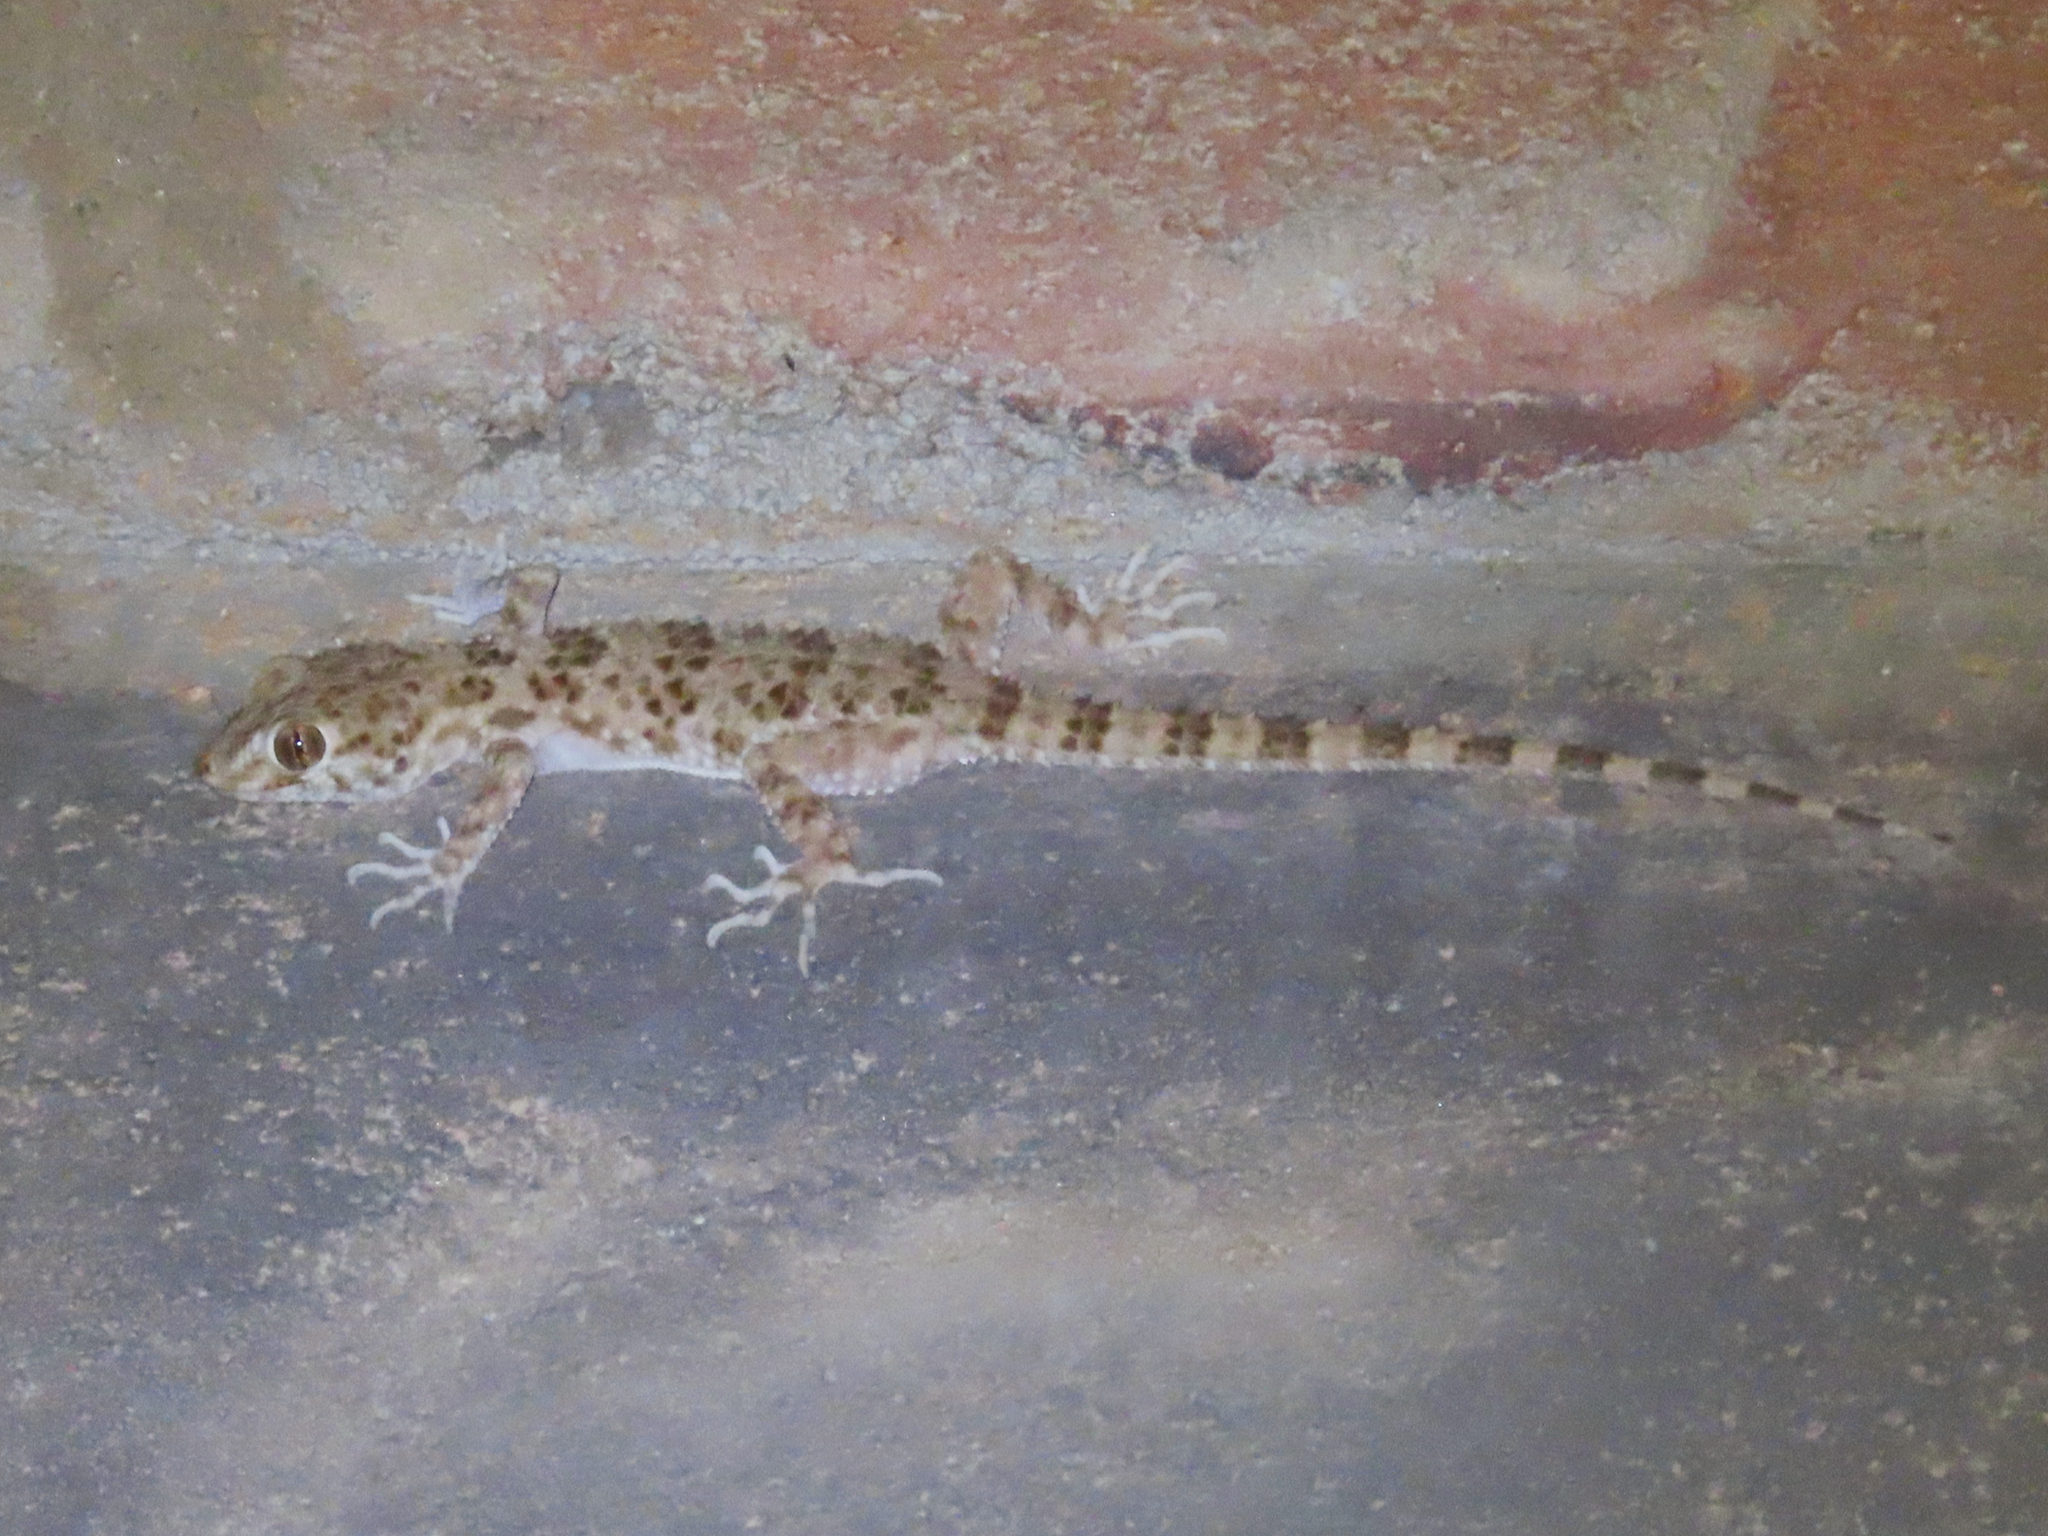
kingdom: Animalia
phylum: Chordata
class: Squamata
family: Gekkonidae
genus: Tenuidactylus
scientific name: Tenuidactylus caspius
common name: Caspian bent-toed gecko
